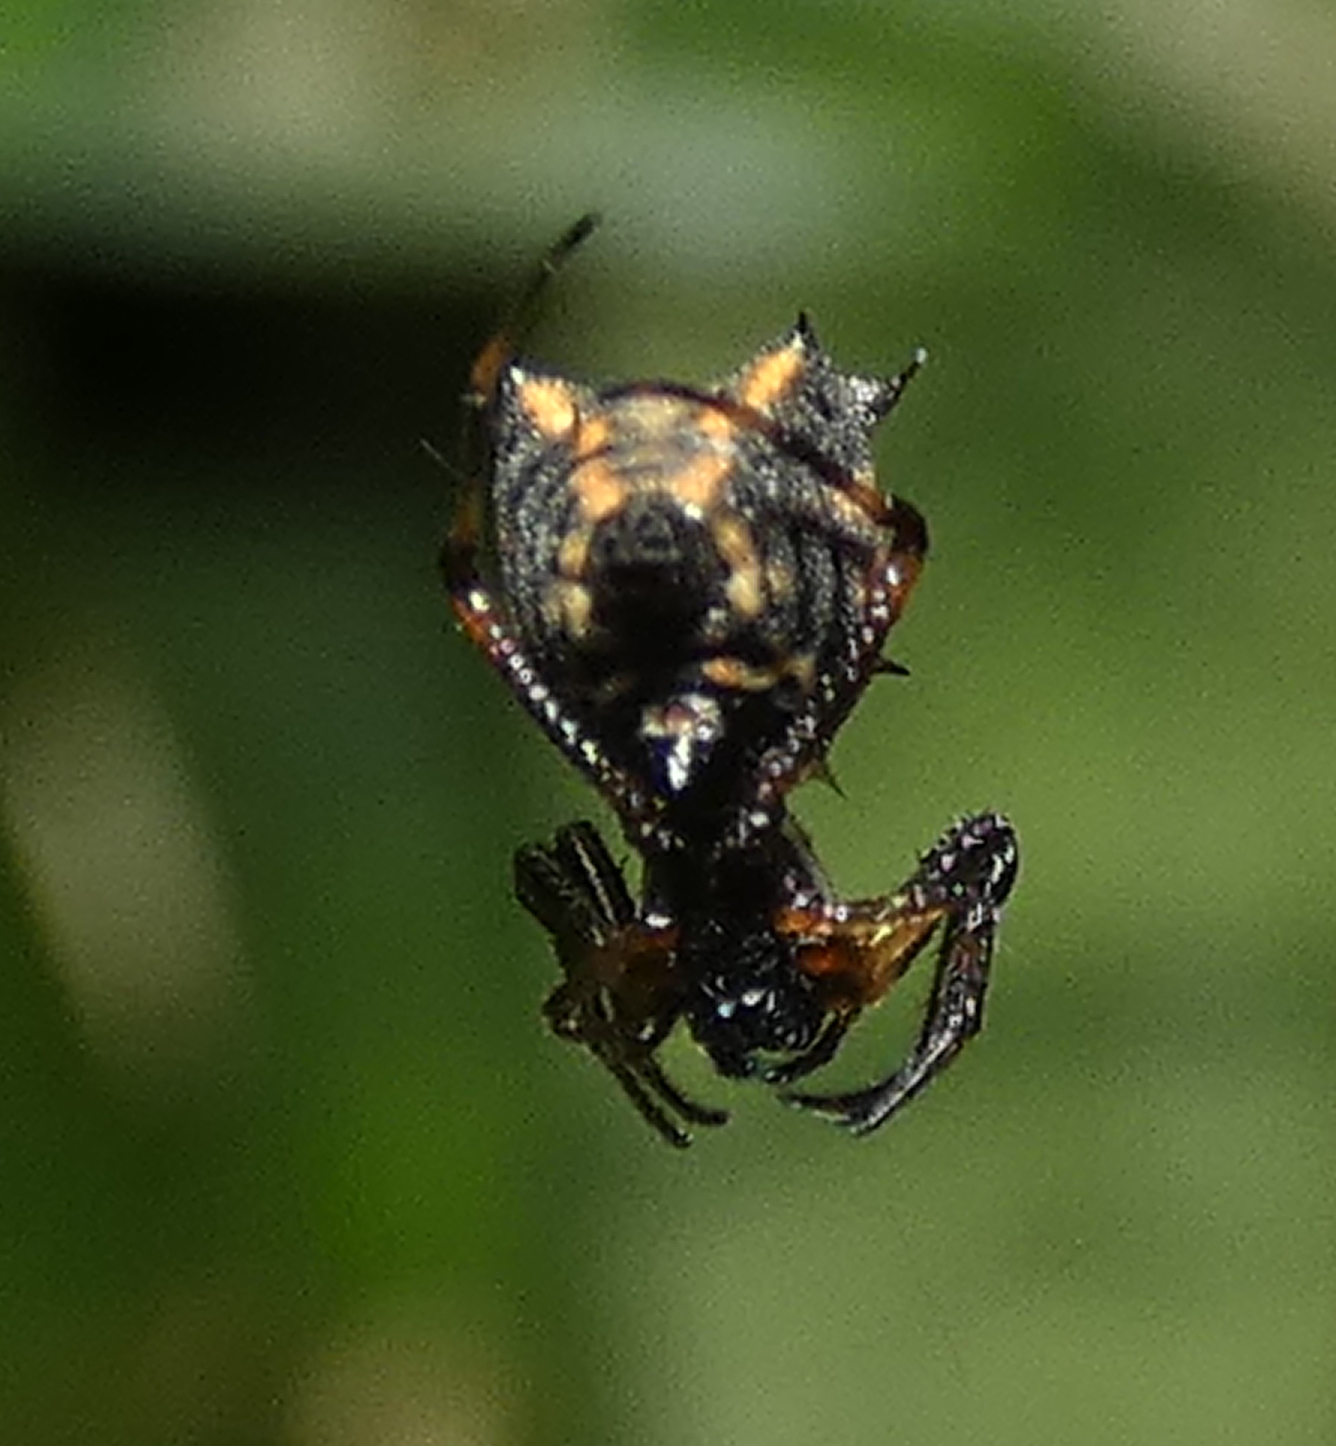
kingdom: Animalia
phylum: Arthropoda
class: Arachnida
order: Araneae
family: Araneidae
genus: Micrathena
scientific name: Micrathena picta
